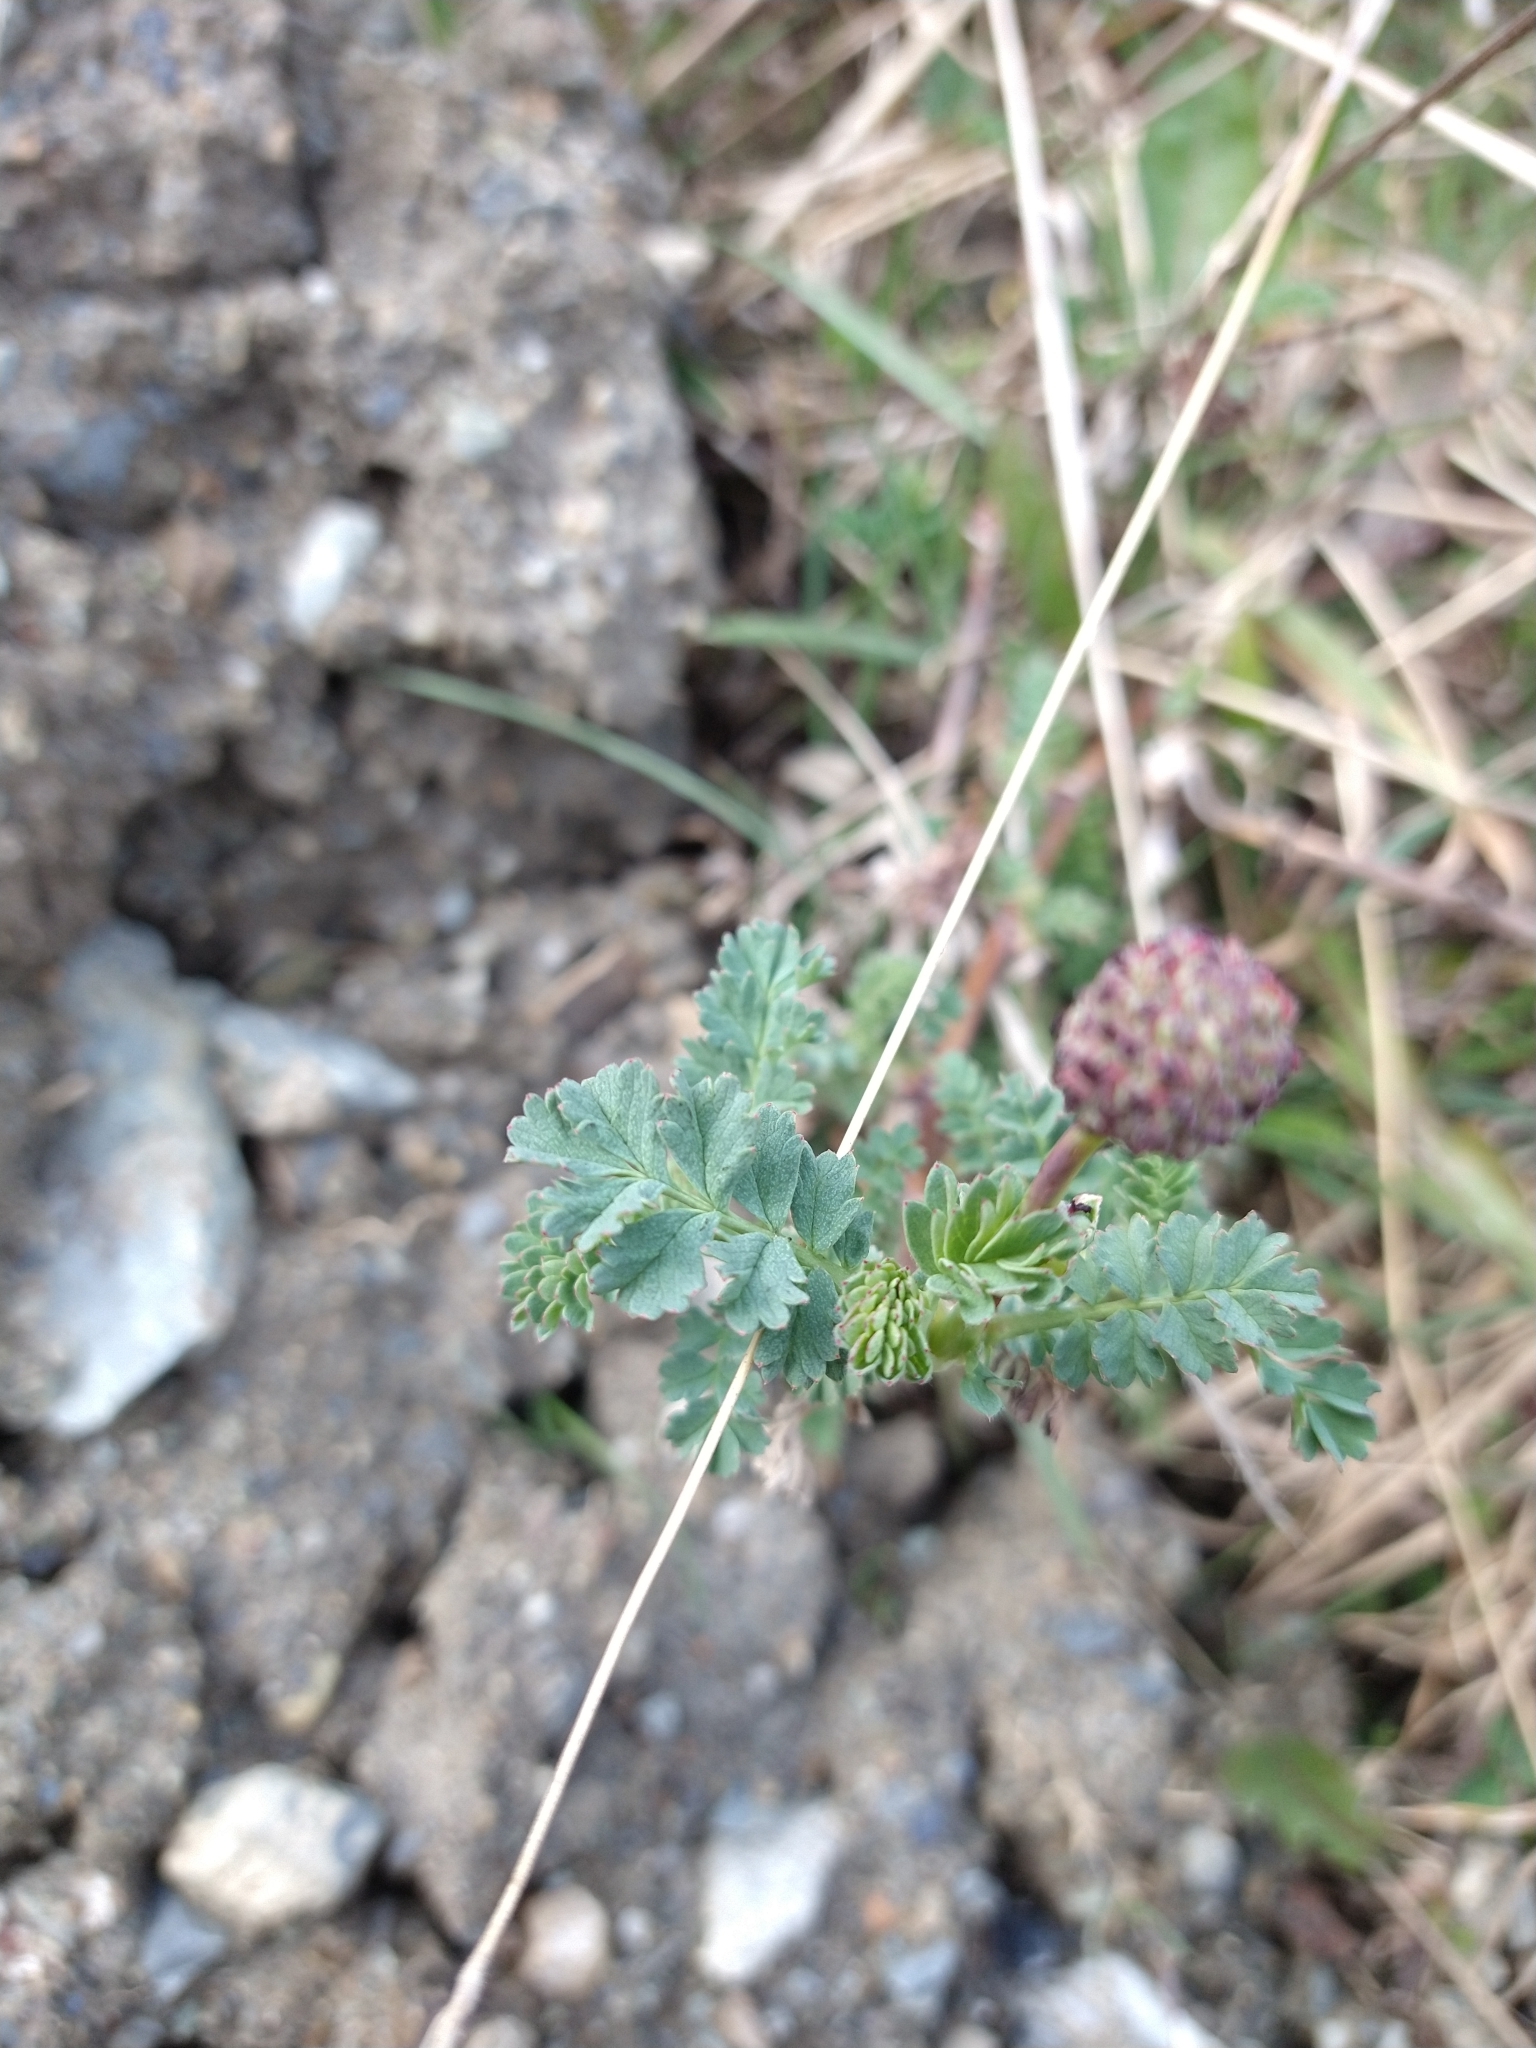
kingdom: Plantae
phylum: Tracheophyta
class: Magnoliopsida
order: Rosales
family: Rosaceae
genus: Acaena
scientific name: Acaena magellanica
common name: New zealand burr
